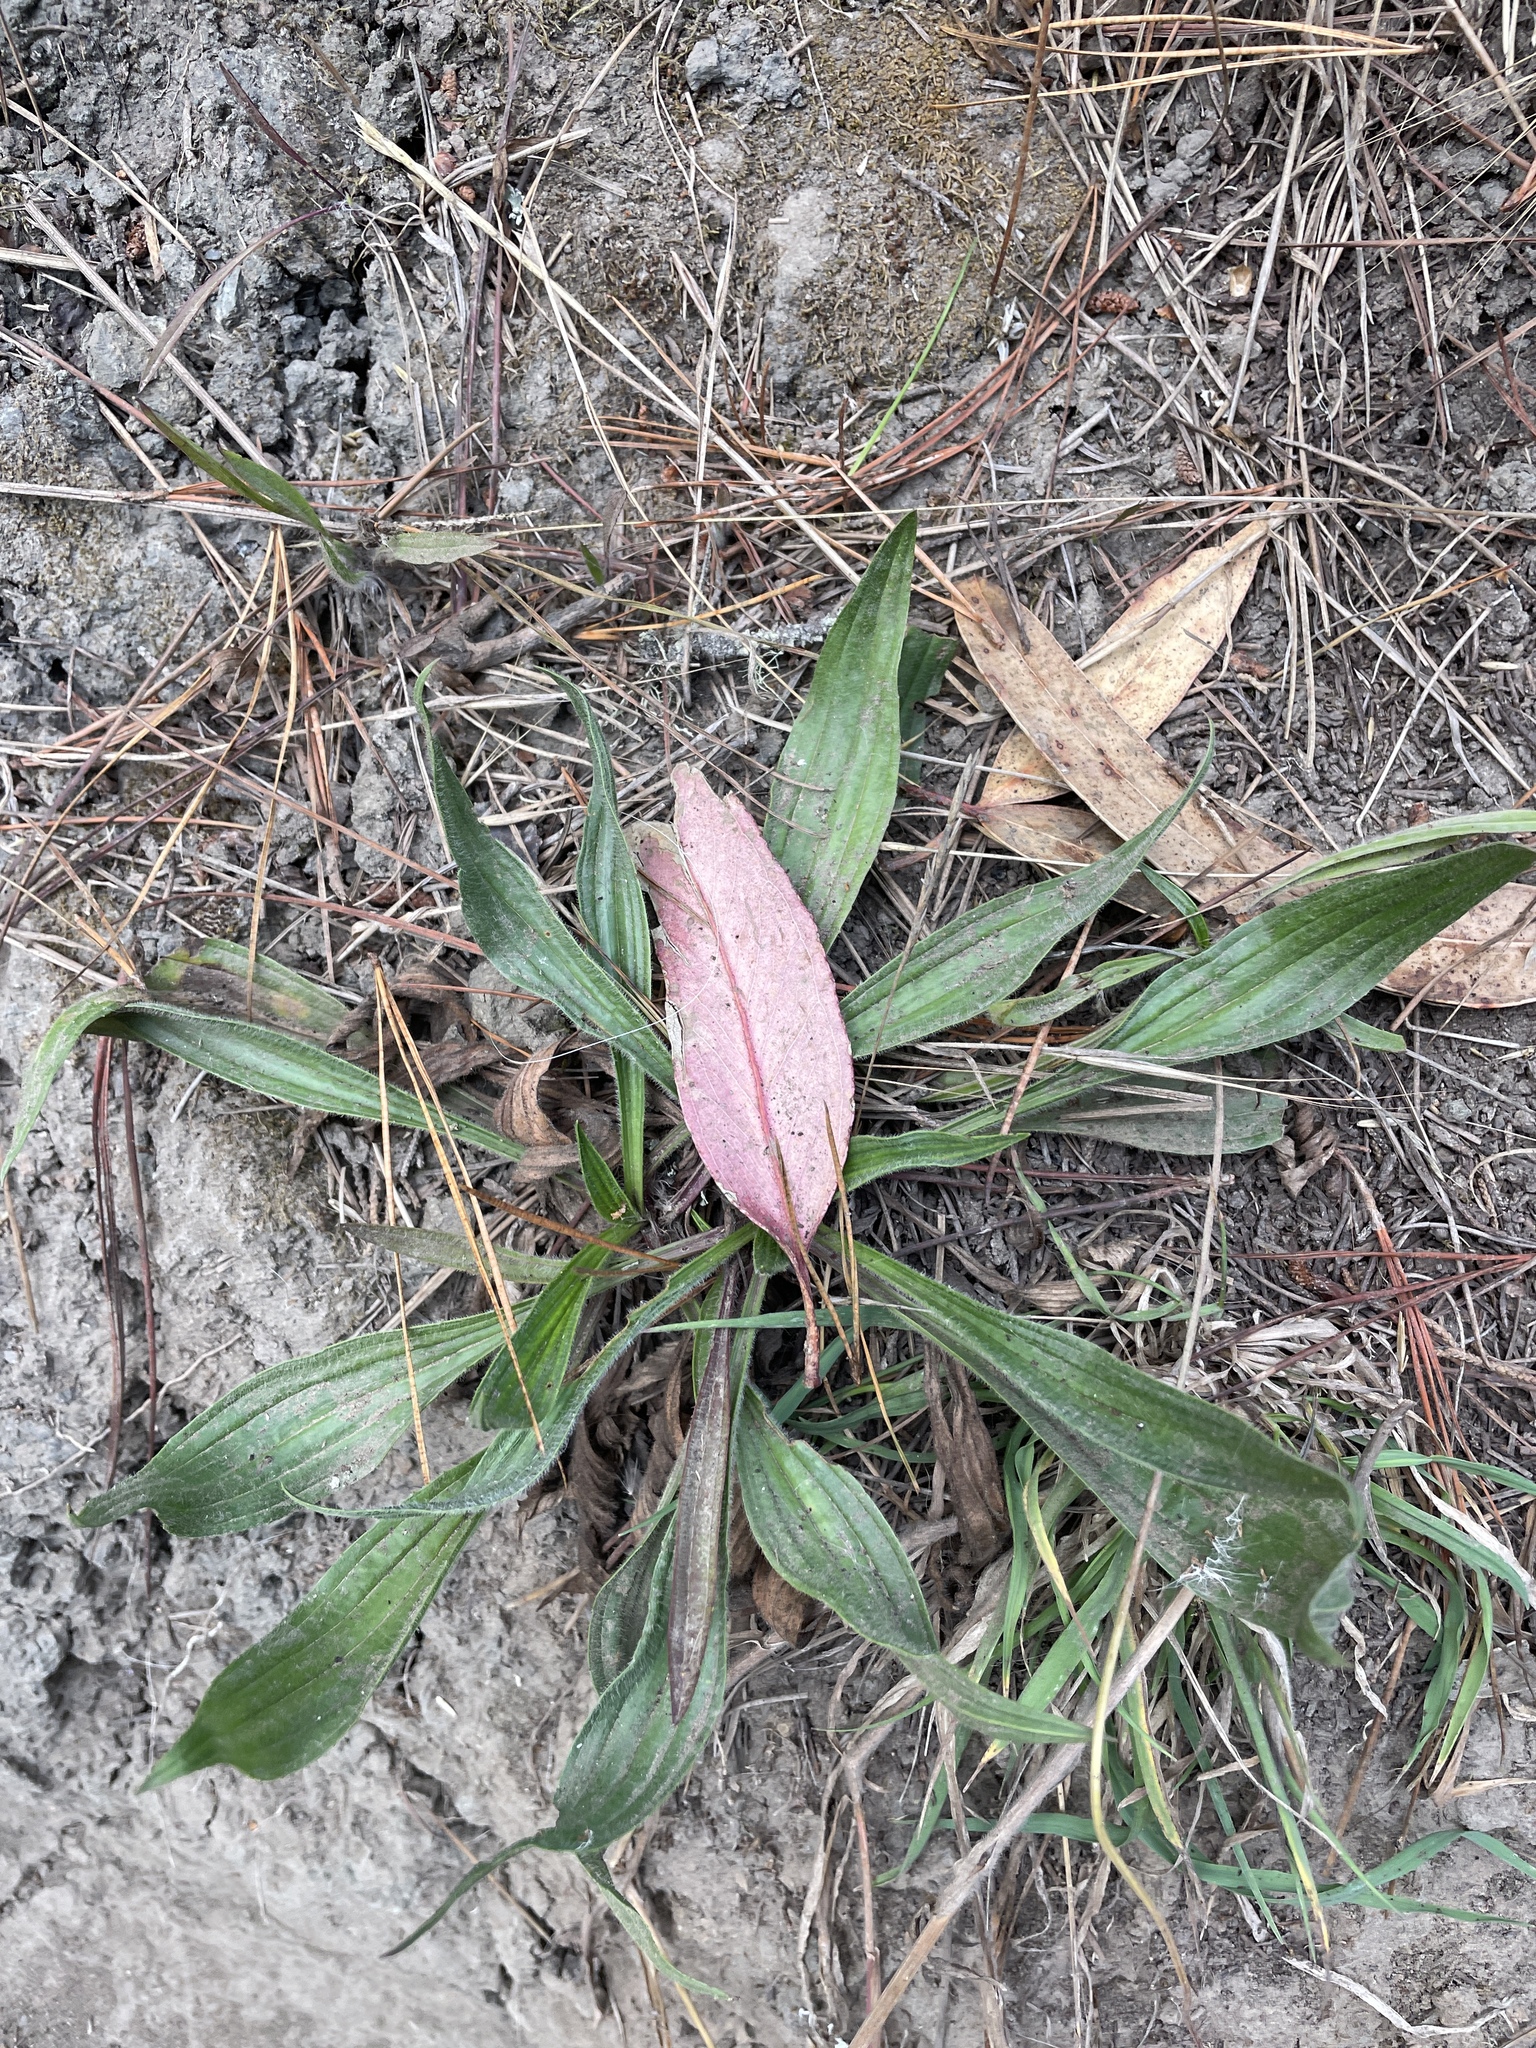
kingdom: Plantae
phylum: Tracheophyta
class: Magnoliopsida
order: Lamiales
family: Plantaginaceae
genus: Plantago
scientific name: Plantago lanceolata
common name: Ribwort plantain
